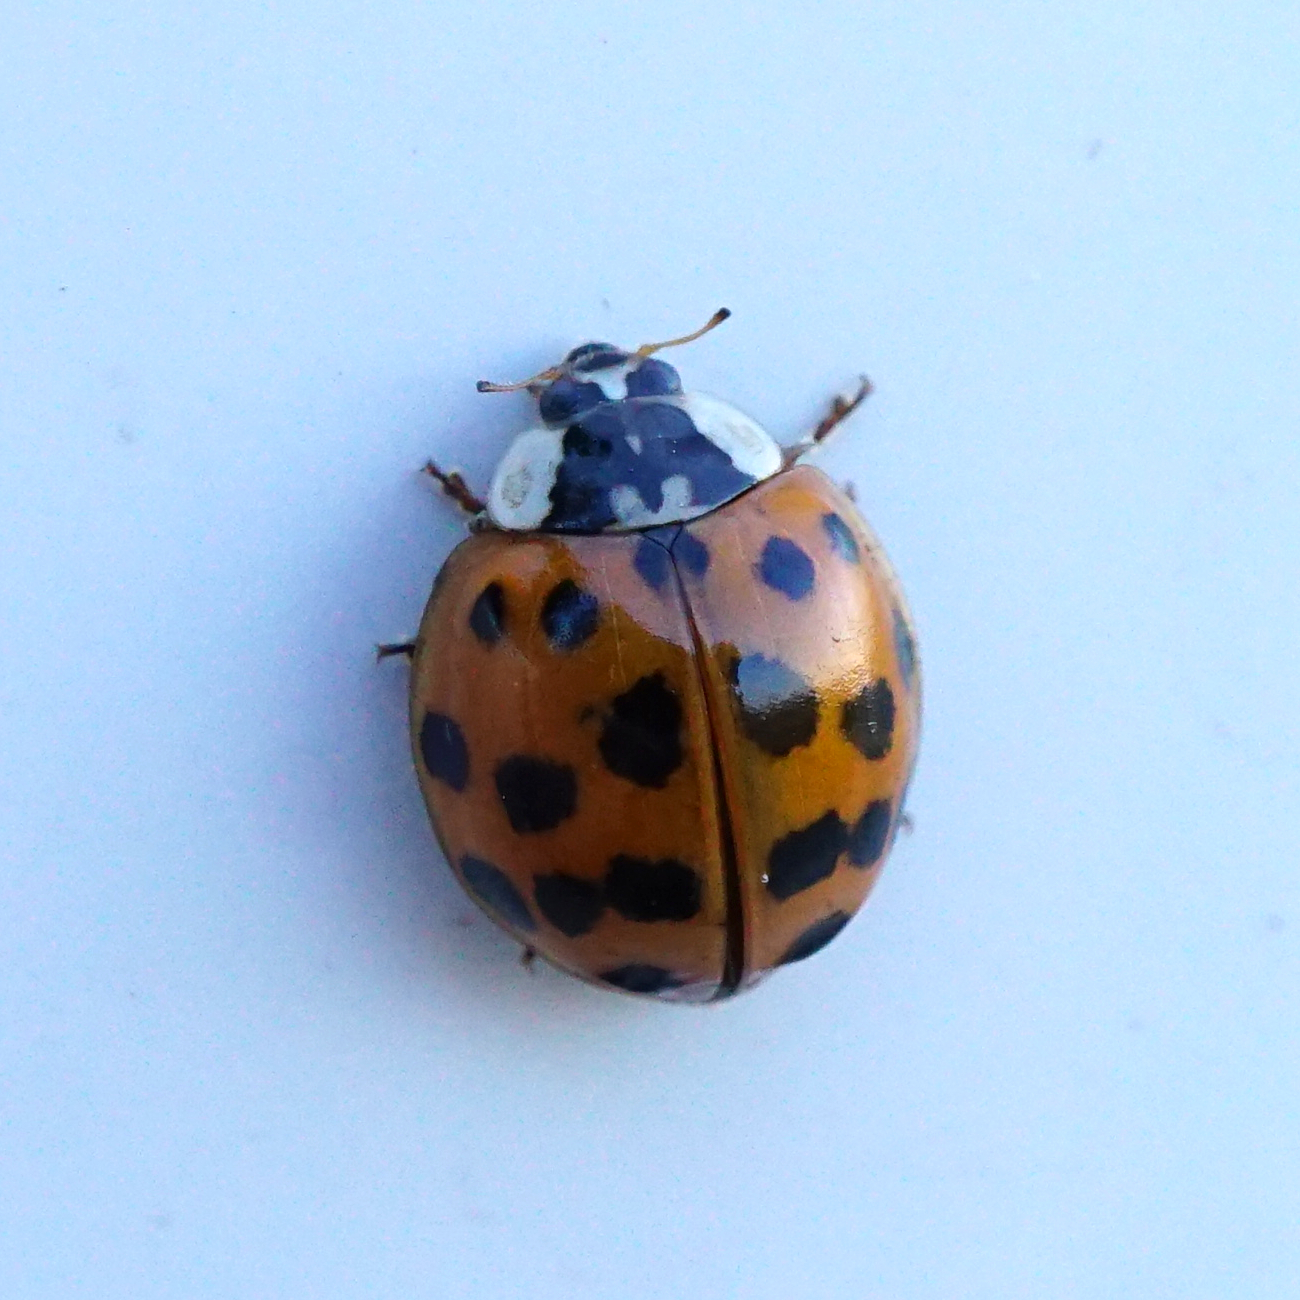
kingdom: Animalia
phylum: Arthropoda
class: Insecta
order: Coleoptera
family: Coccinellidae
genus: Harmonia
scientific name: Harmonia axyridis
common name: Harlequin ladybird
